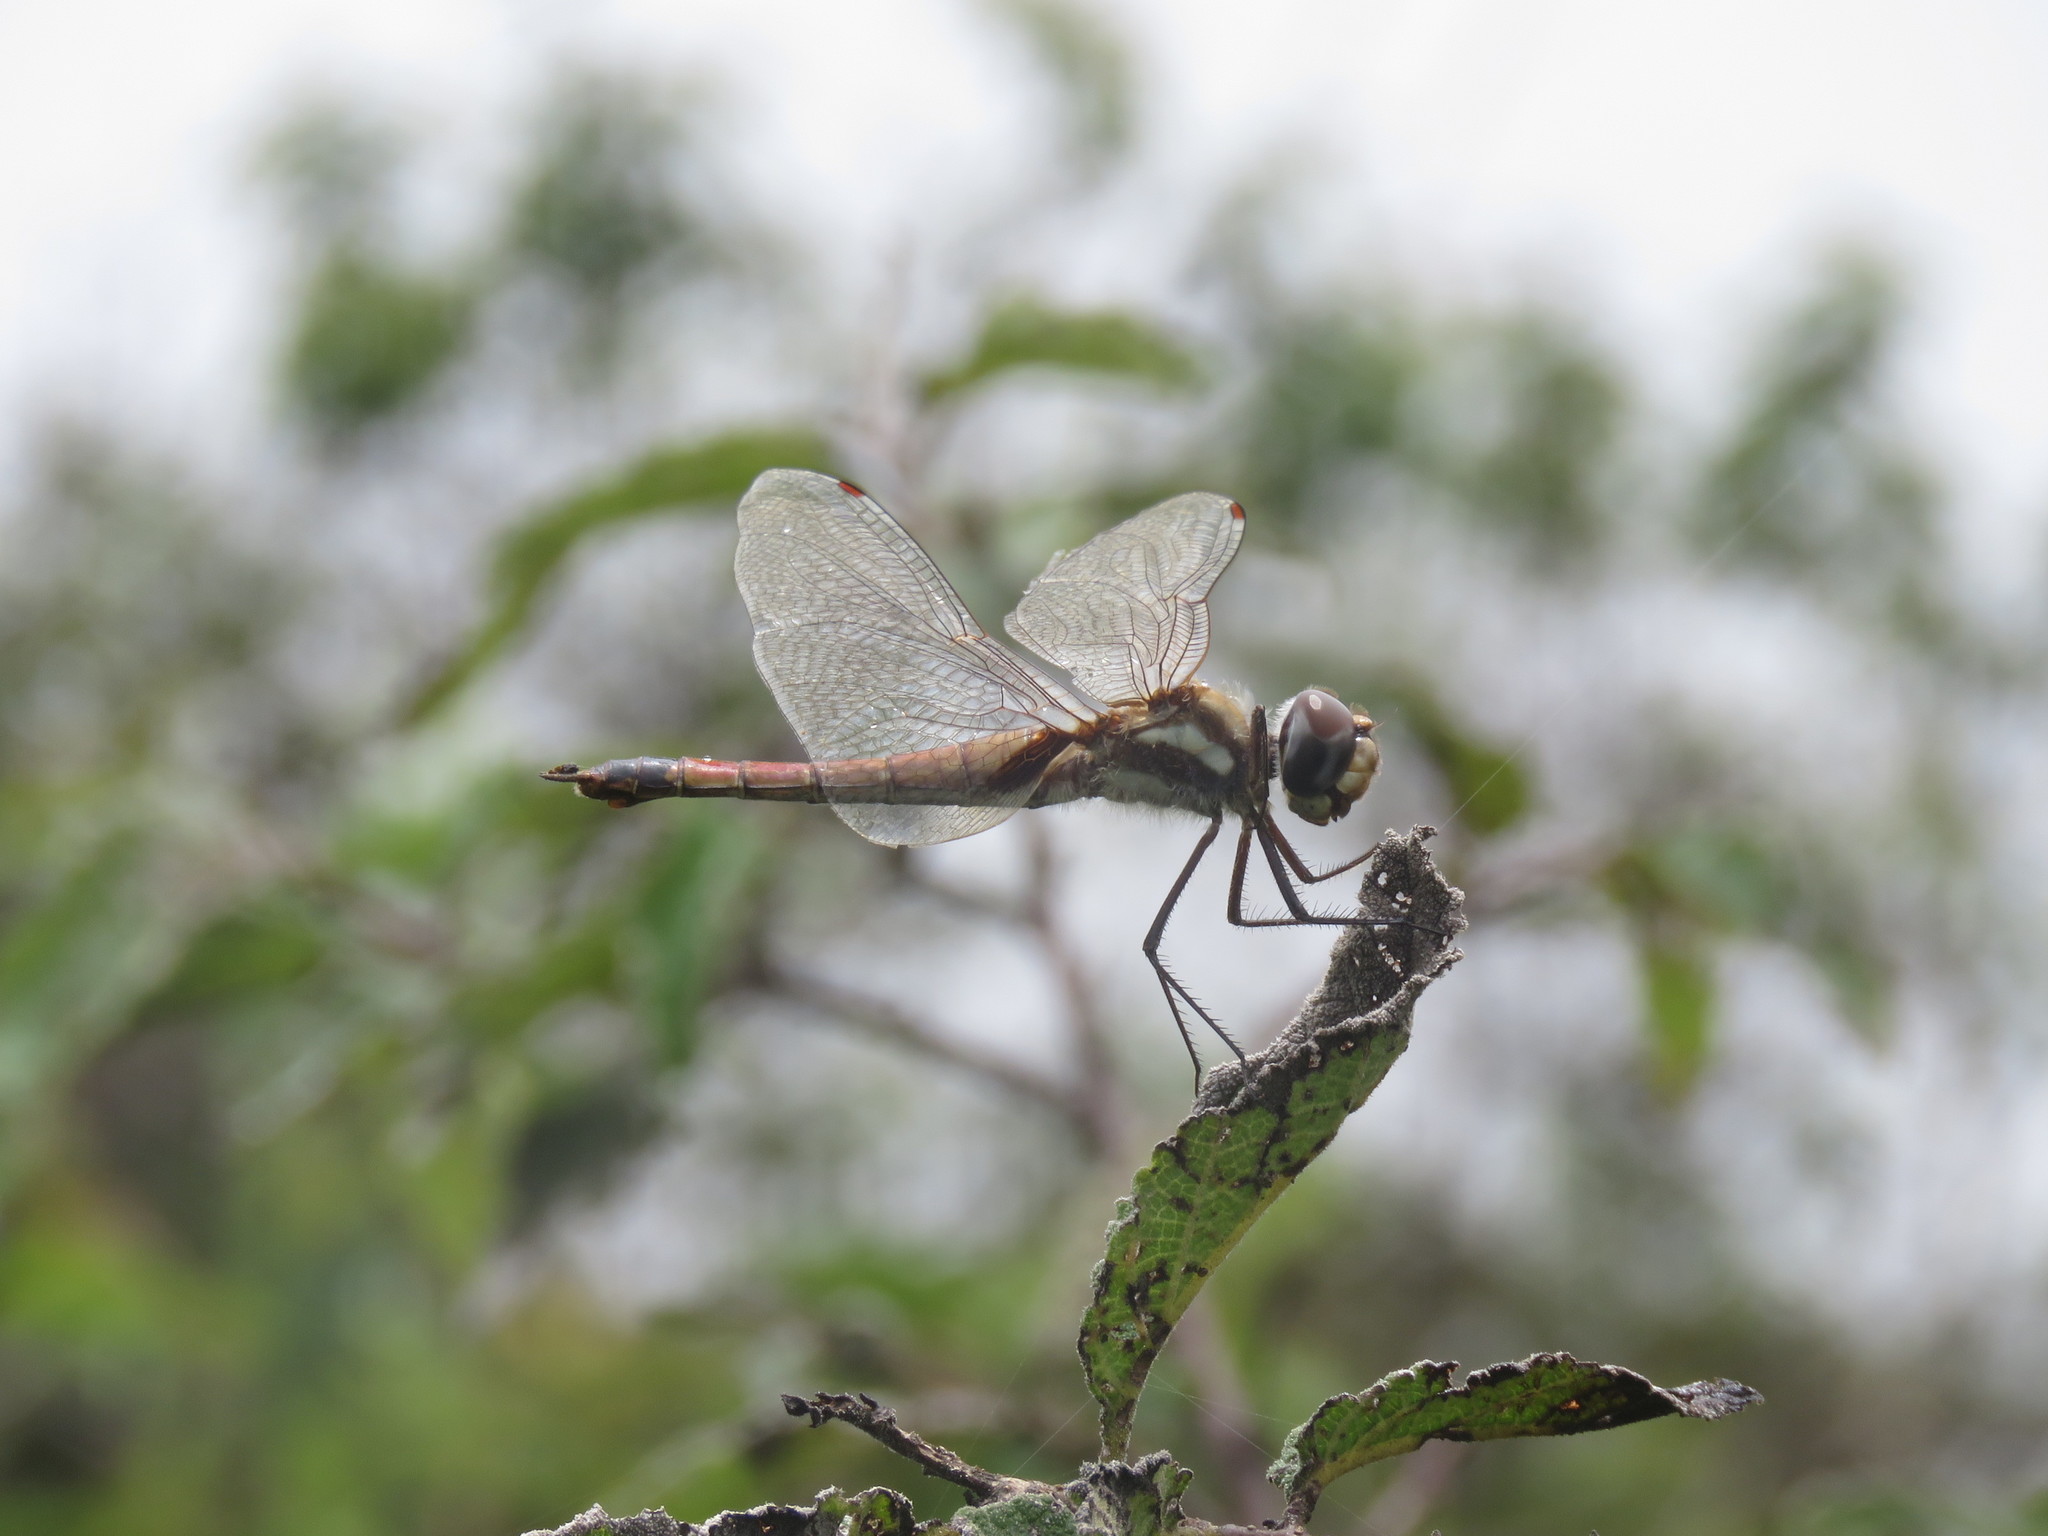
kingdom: Animalia
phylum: Arthropoda
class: Insecta
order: Odonata
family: Libellulidae
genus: Tramea
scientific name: Tramea darwini
